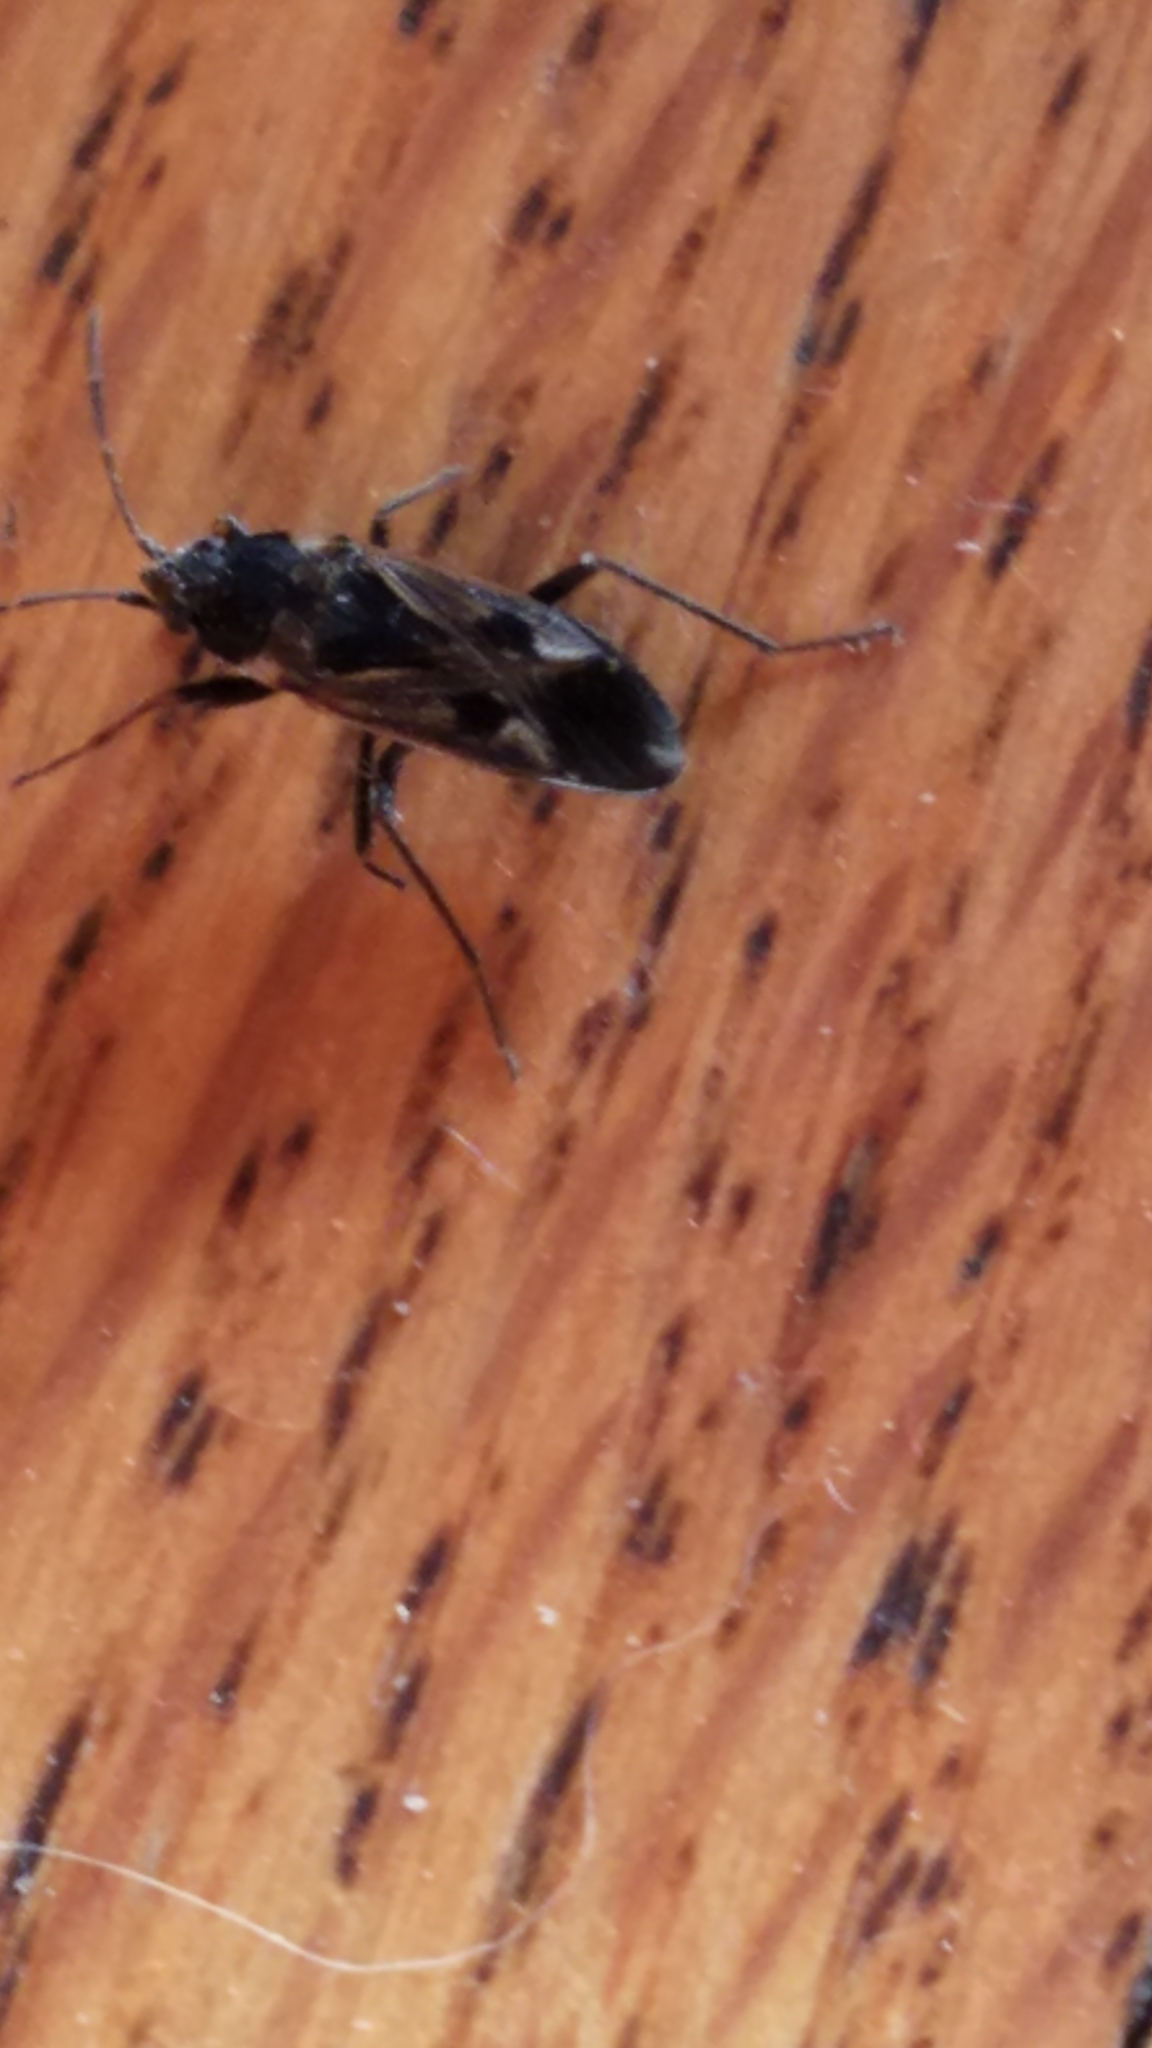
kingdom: Animalia
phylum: Arthropoda
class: Insecta
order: Hemiptera
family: Rhyparochromidae
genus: Rhyparochromus
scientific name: Rhyparochromus vulgaris
